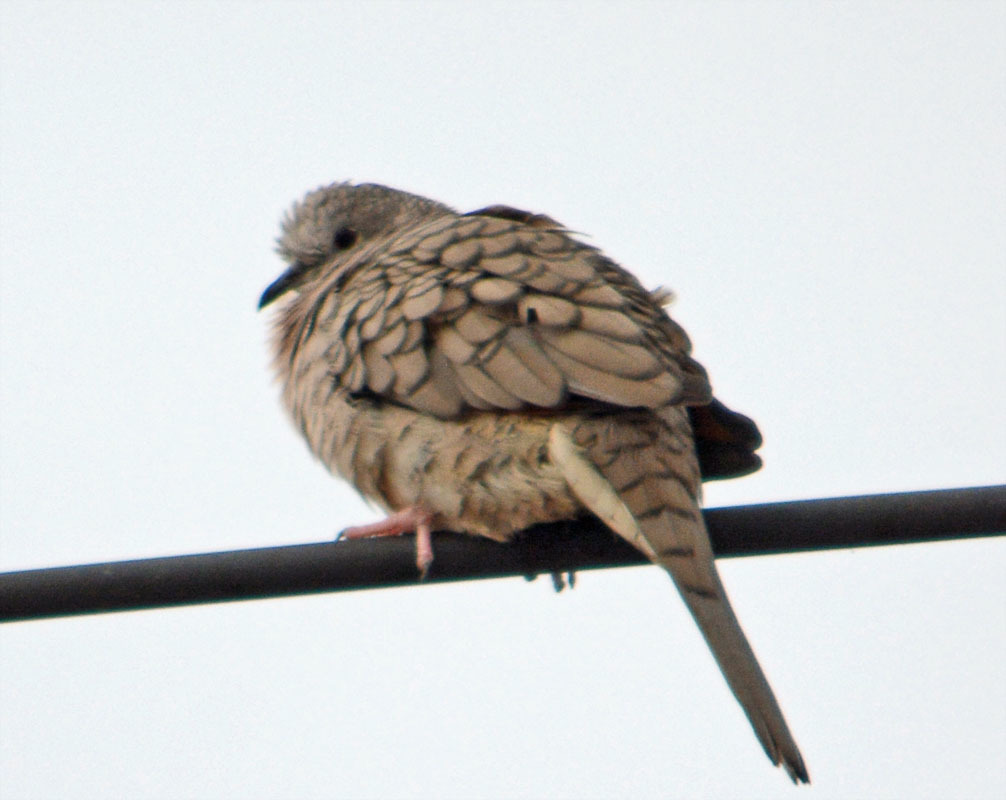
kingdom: Animalia
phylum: Chordata
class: Aves
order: Columbiformes
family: Columbidae
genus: Columbina
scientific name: Columbina inca
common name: Inca dove
